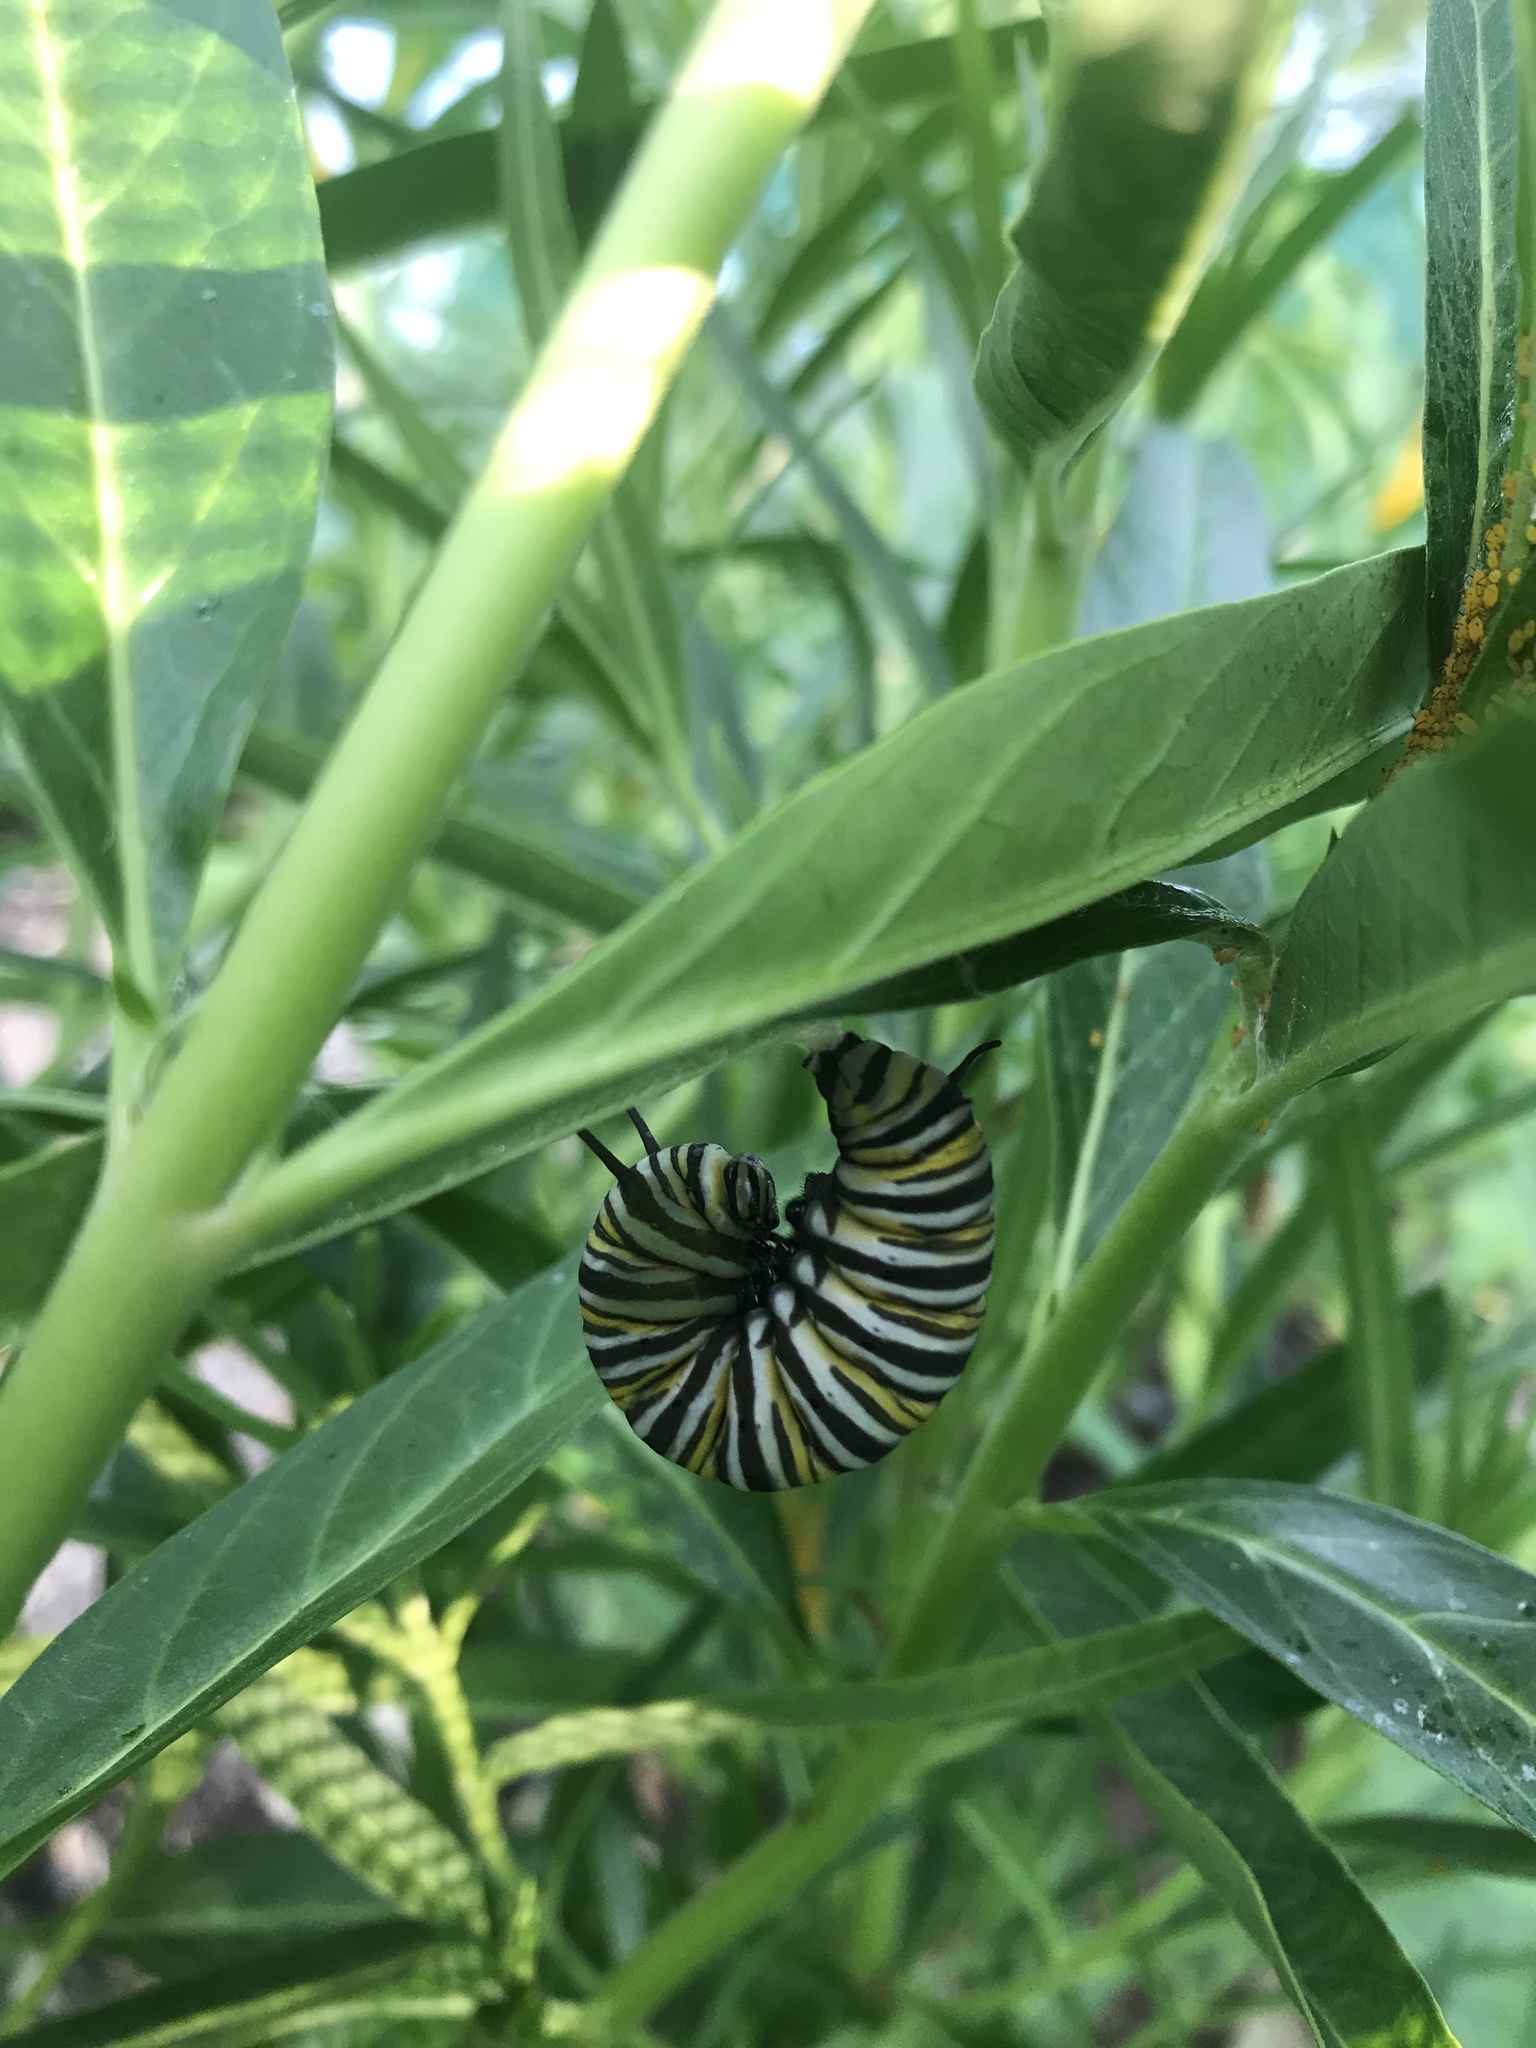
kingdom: Animalia
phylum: Arthropoda
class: Insecta
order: Lepidoptera
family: Nymphalidae
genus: Danaus
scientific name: Danaus plexippus
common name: Monarch
